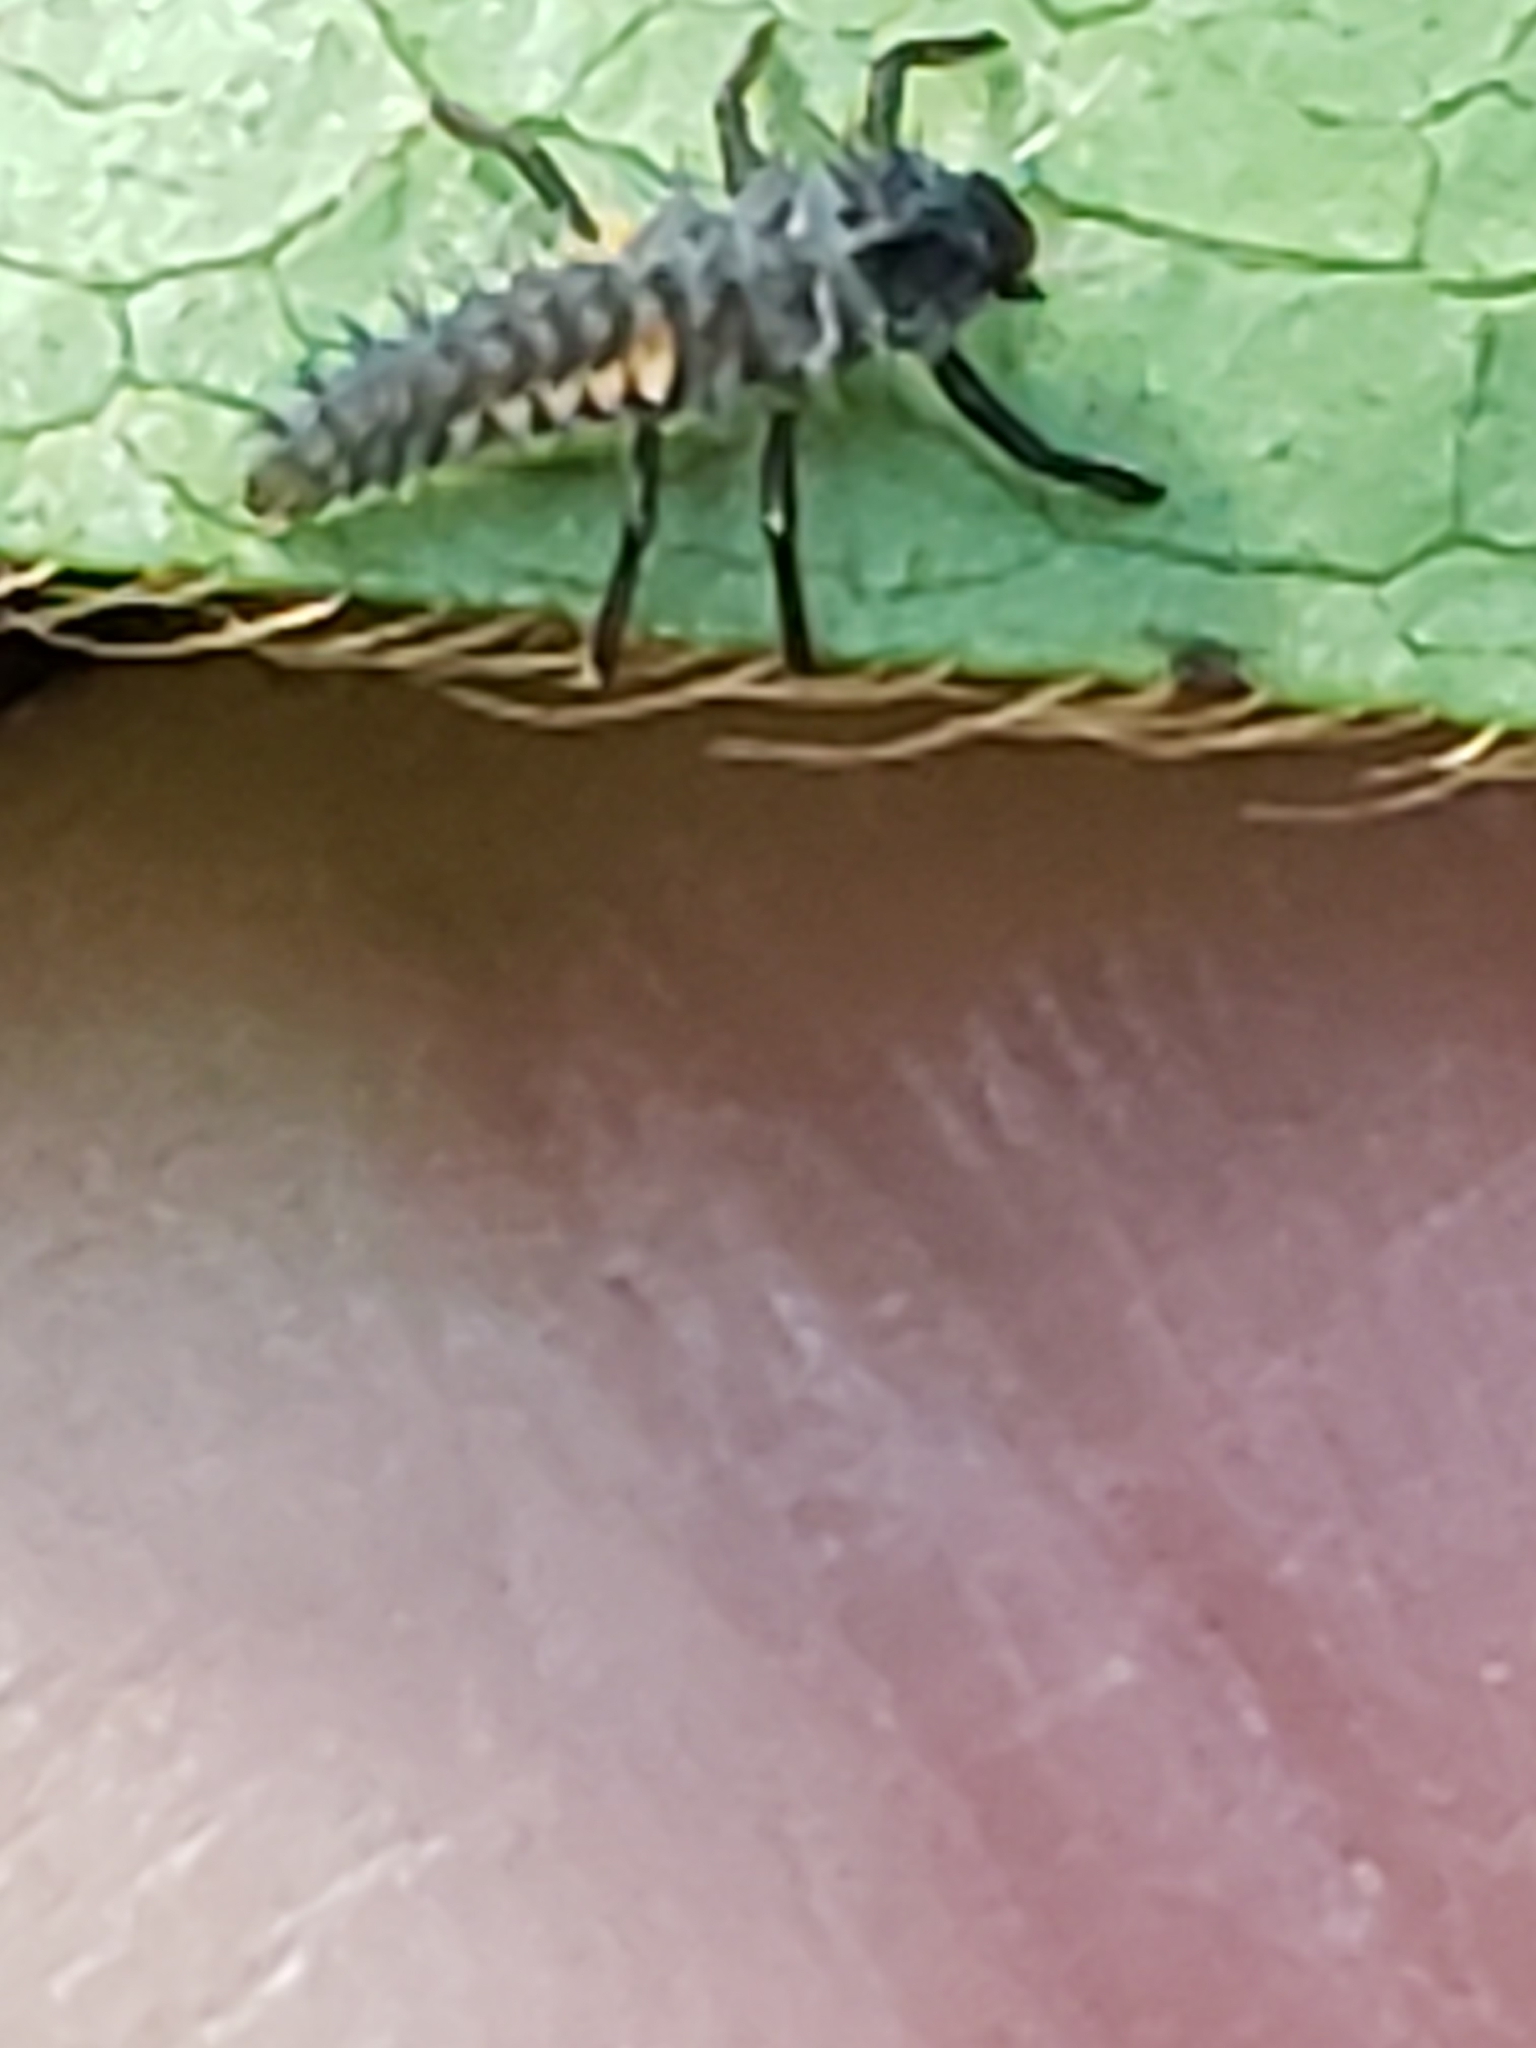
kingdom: Animalia
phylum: Arthropoda
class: Insecta
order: Coleoptera
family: Coccinellidae
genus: Harmonia
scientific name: Harmonia axyridis
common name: Harlequin ladybird
